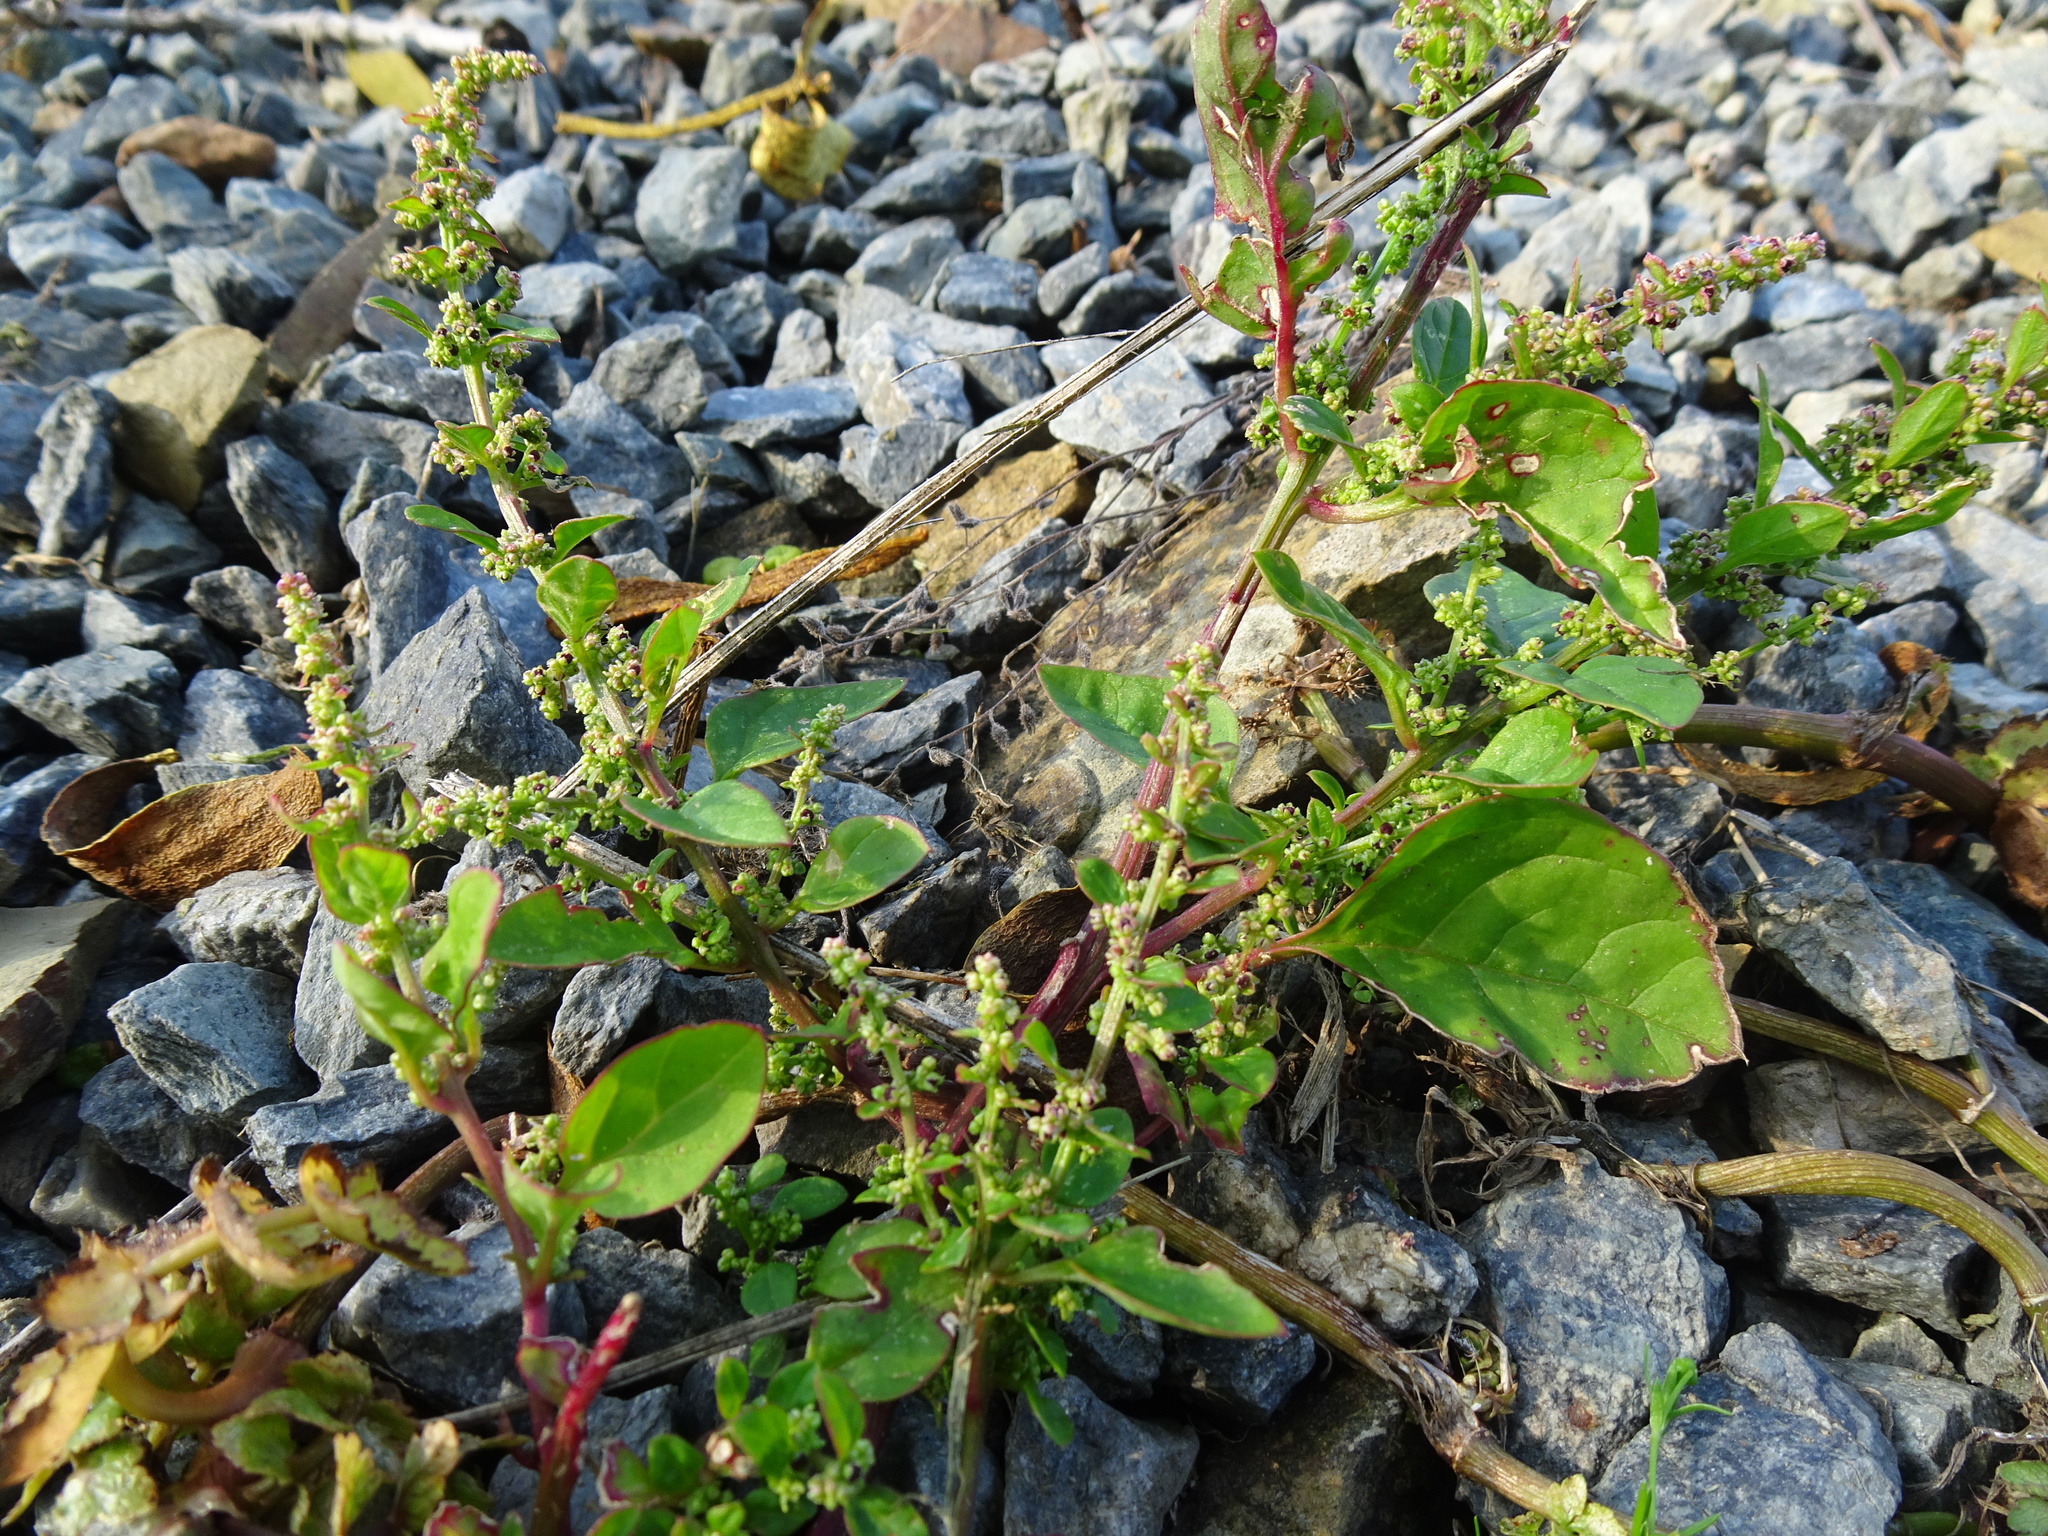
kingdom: Plantae
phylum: Tracheophyta
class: Magnoliopsida
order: Caryophyllales
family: Amaranthaceae
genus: Lipandra
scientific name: Lipandra polysperma
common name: Many-seed goosefoot
